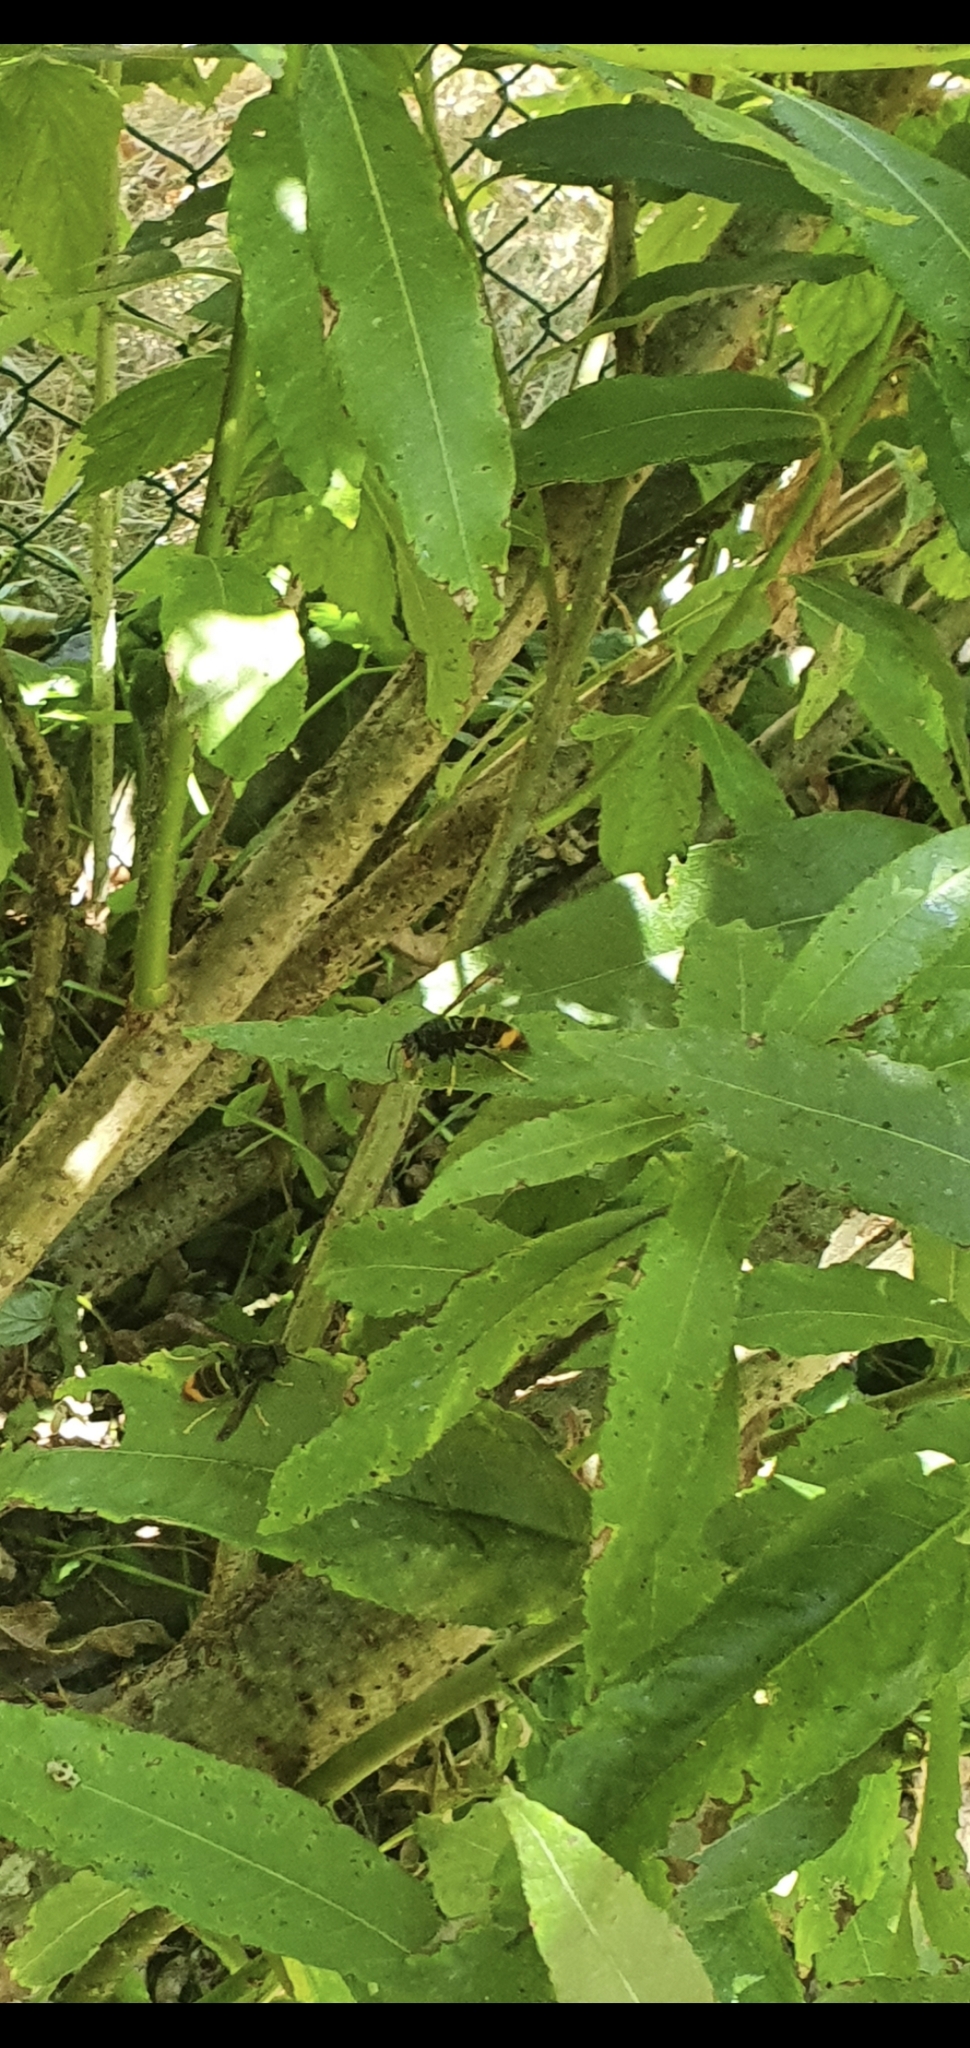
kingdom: Animalia
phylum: Arthropoda
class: Insecta
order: Hymenoptera
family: Vespidae
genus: Vespa
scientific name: Vespa velutina
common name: Asian hornet
